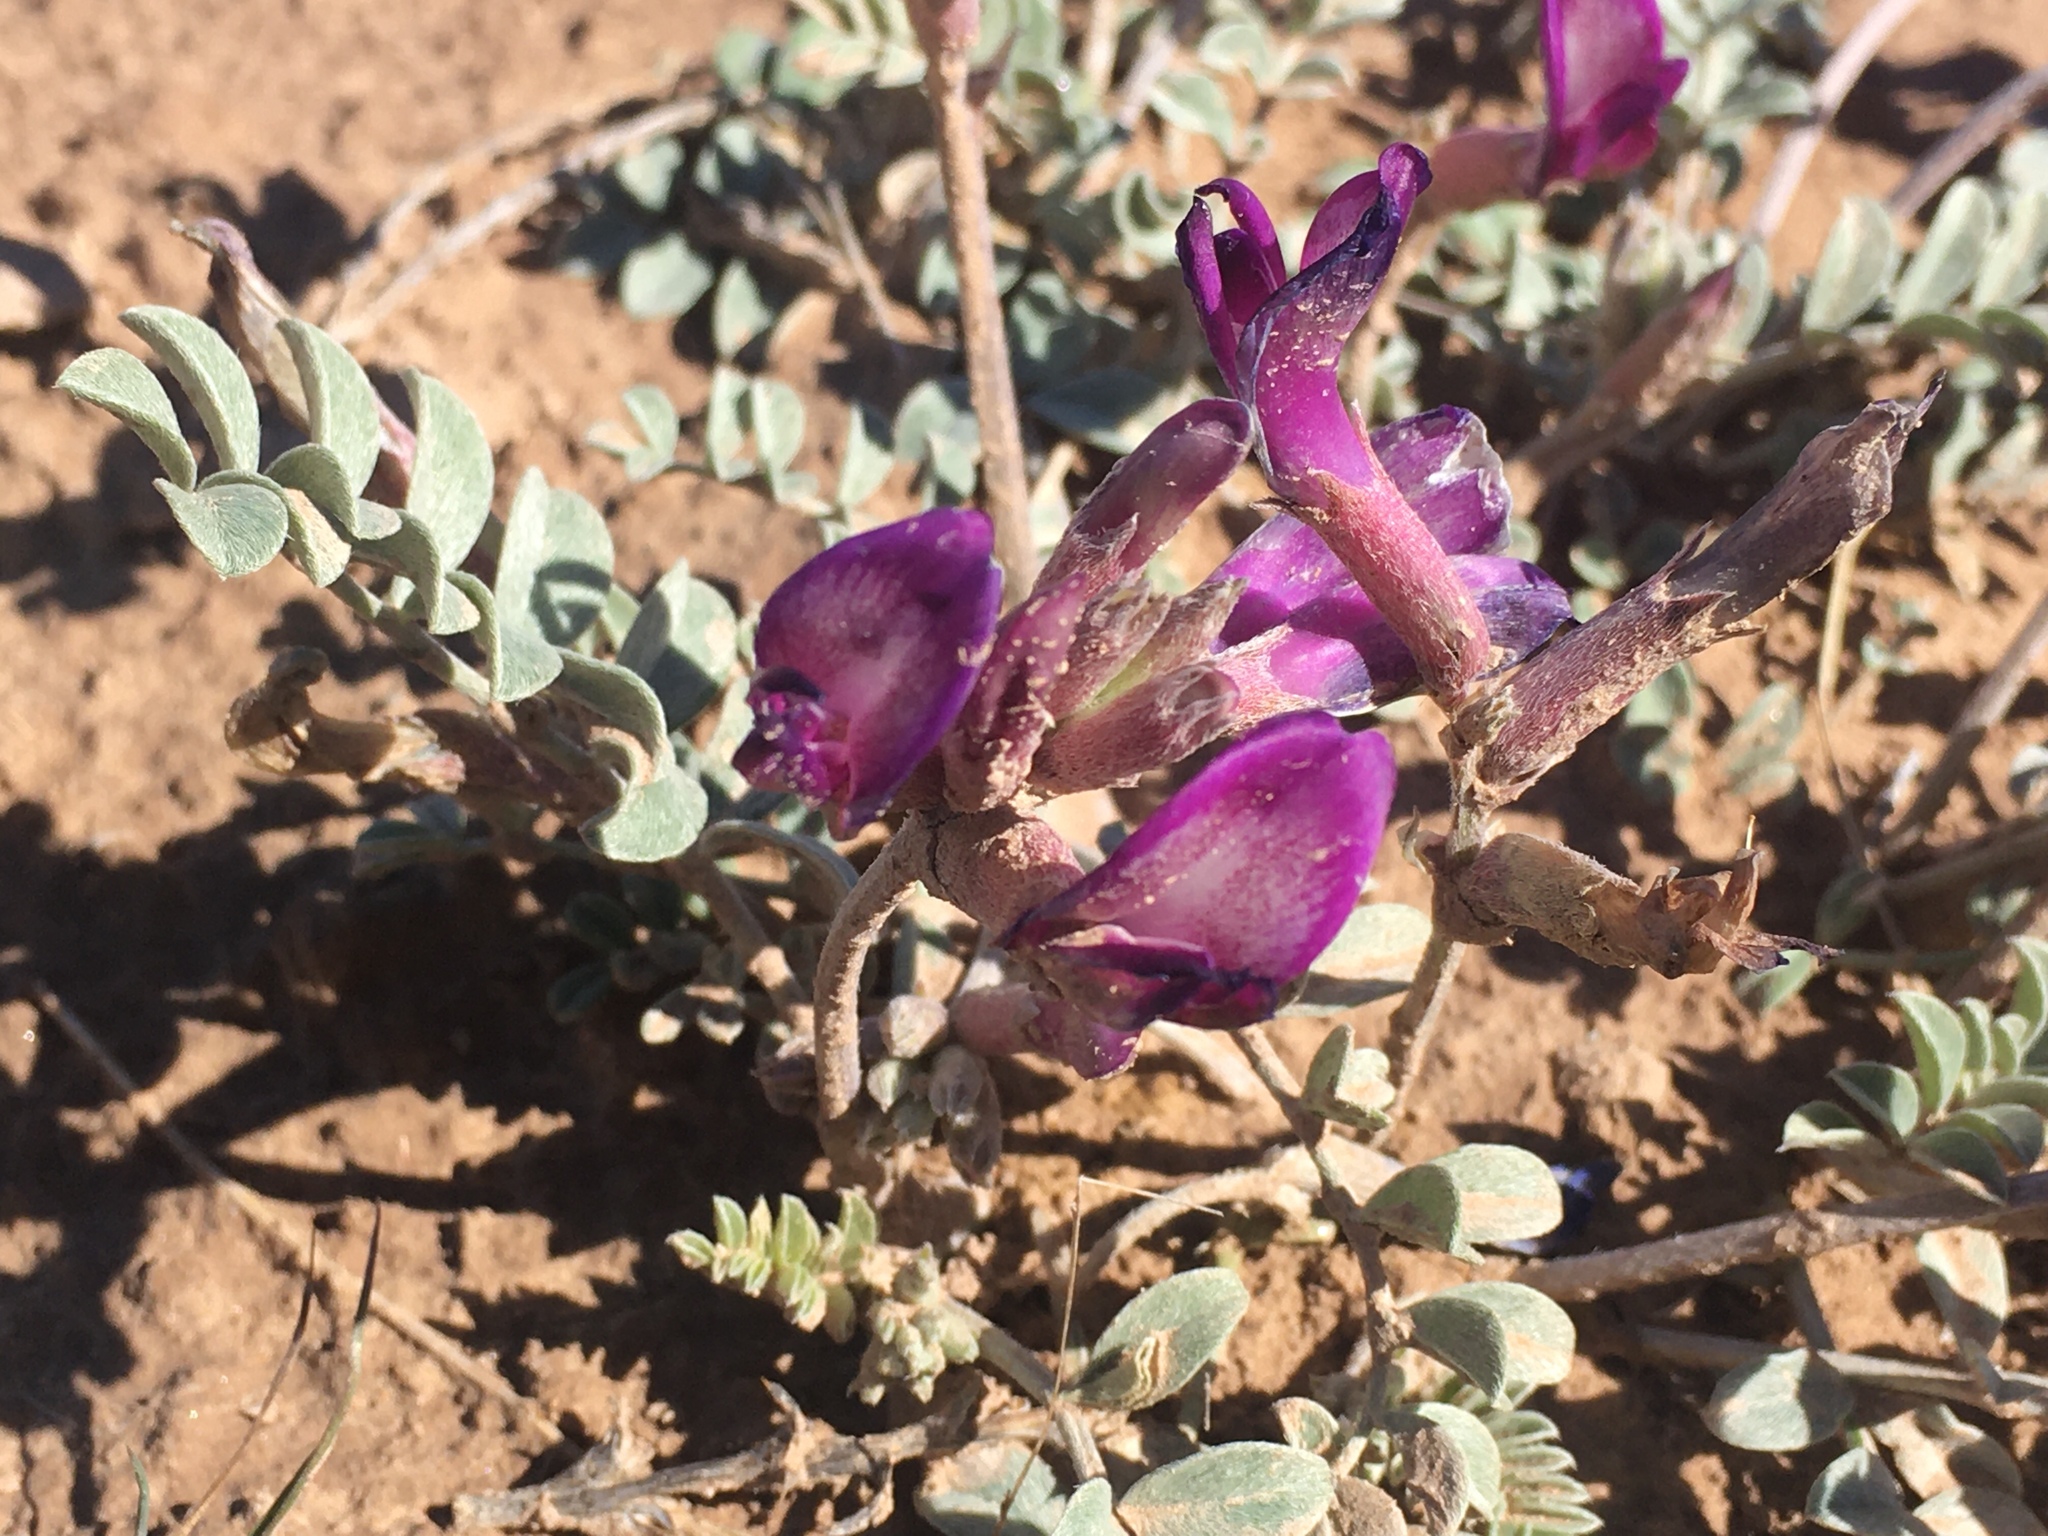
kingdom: Plantae
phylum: Tracheophyta
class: Magnoliopsida
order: Fabales
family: Fabaceae
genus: Astragalus
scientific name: Astragalus amphioxys
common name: Crescent milk-vetch
